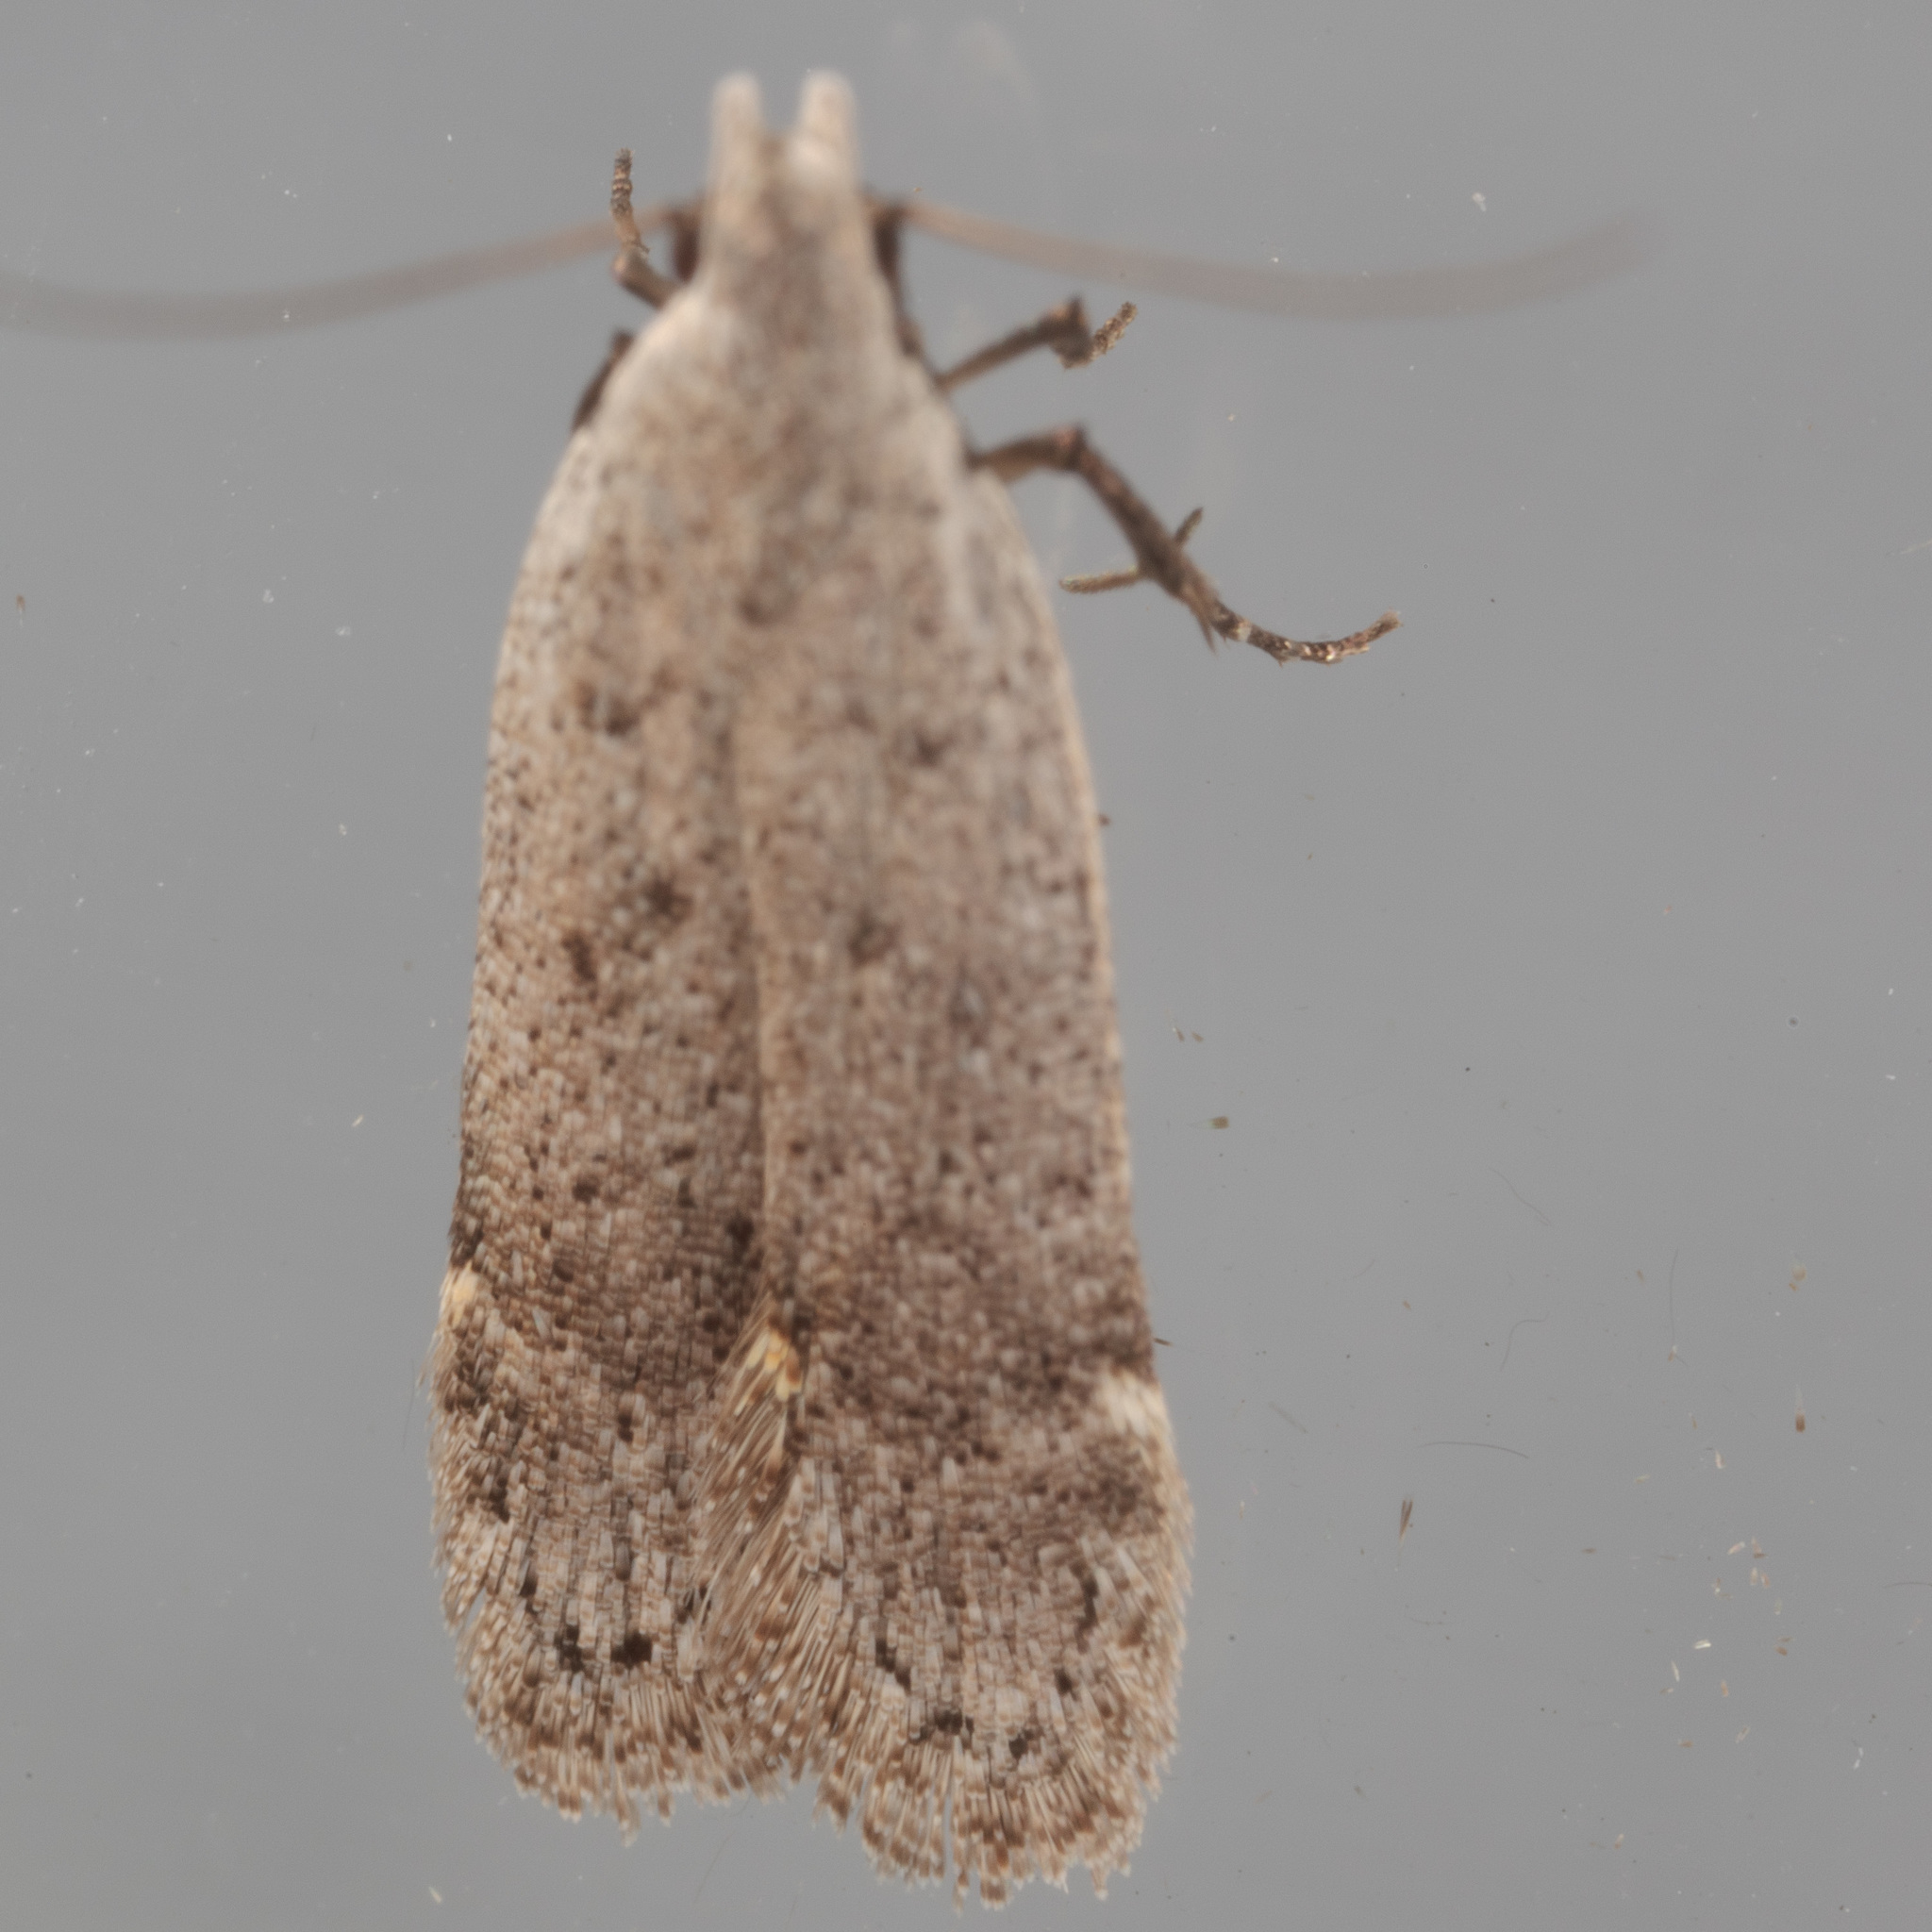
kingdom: Animalia
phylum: Arthropoda
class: Insecta
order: Lepidoptera
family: Gelechiidae
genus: Anacampsis
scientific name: Anacampsis comparanda
